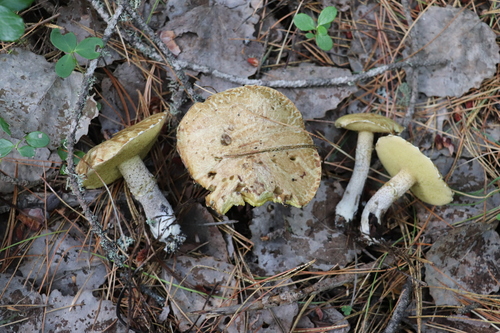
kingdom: Fungi
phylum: Basidiomycota
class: Agaricomycetes
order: Boletales
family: Suillaceae
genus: Suillus
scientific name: Suillus placidus
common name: Slippery white bolete
